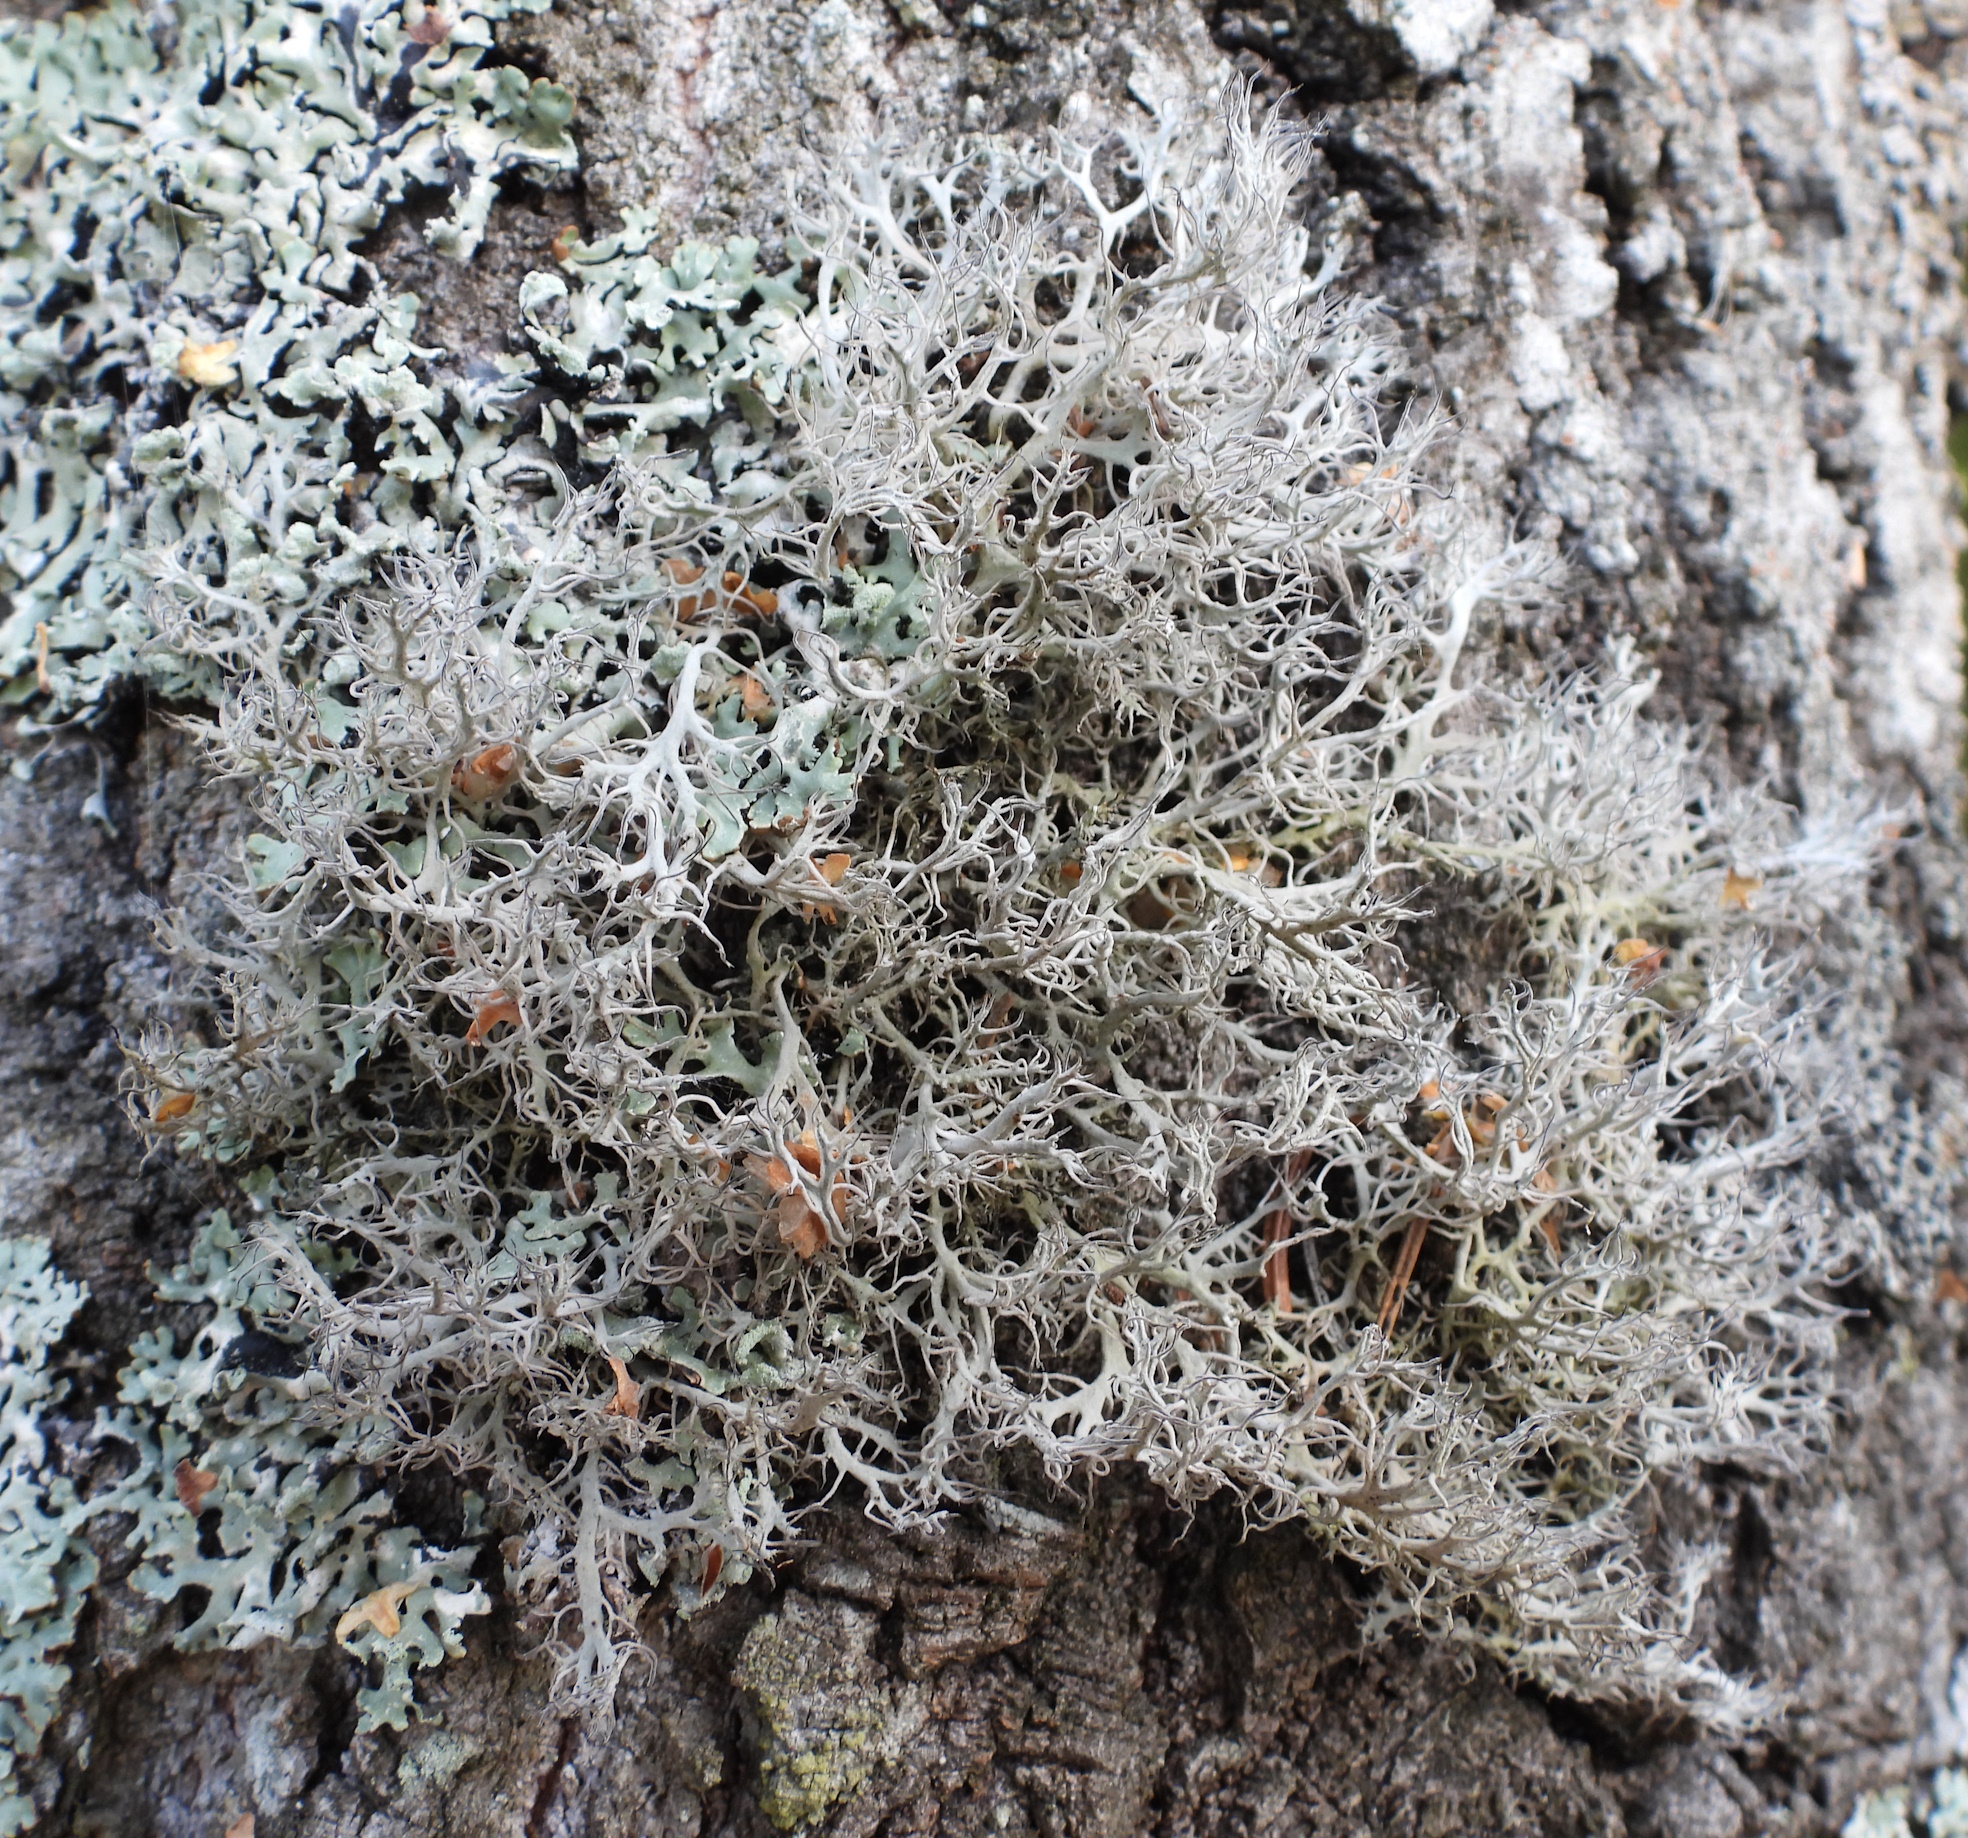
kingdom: Fungi
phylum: Ascomycota
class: Lecanoromycetes
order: Caliciales
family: Physciaceae
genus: Anaptychia
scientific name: Anaptychia ciliaris
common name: Great ciliated lichen
